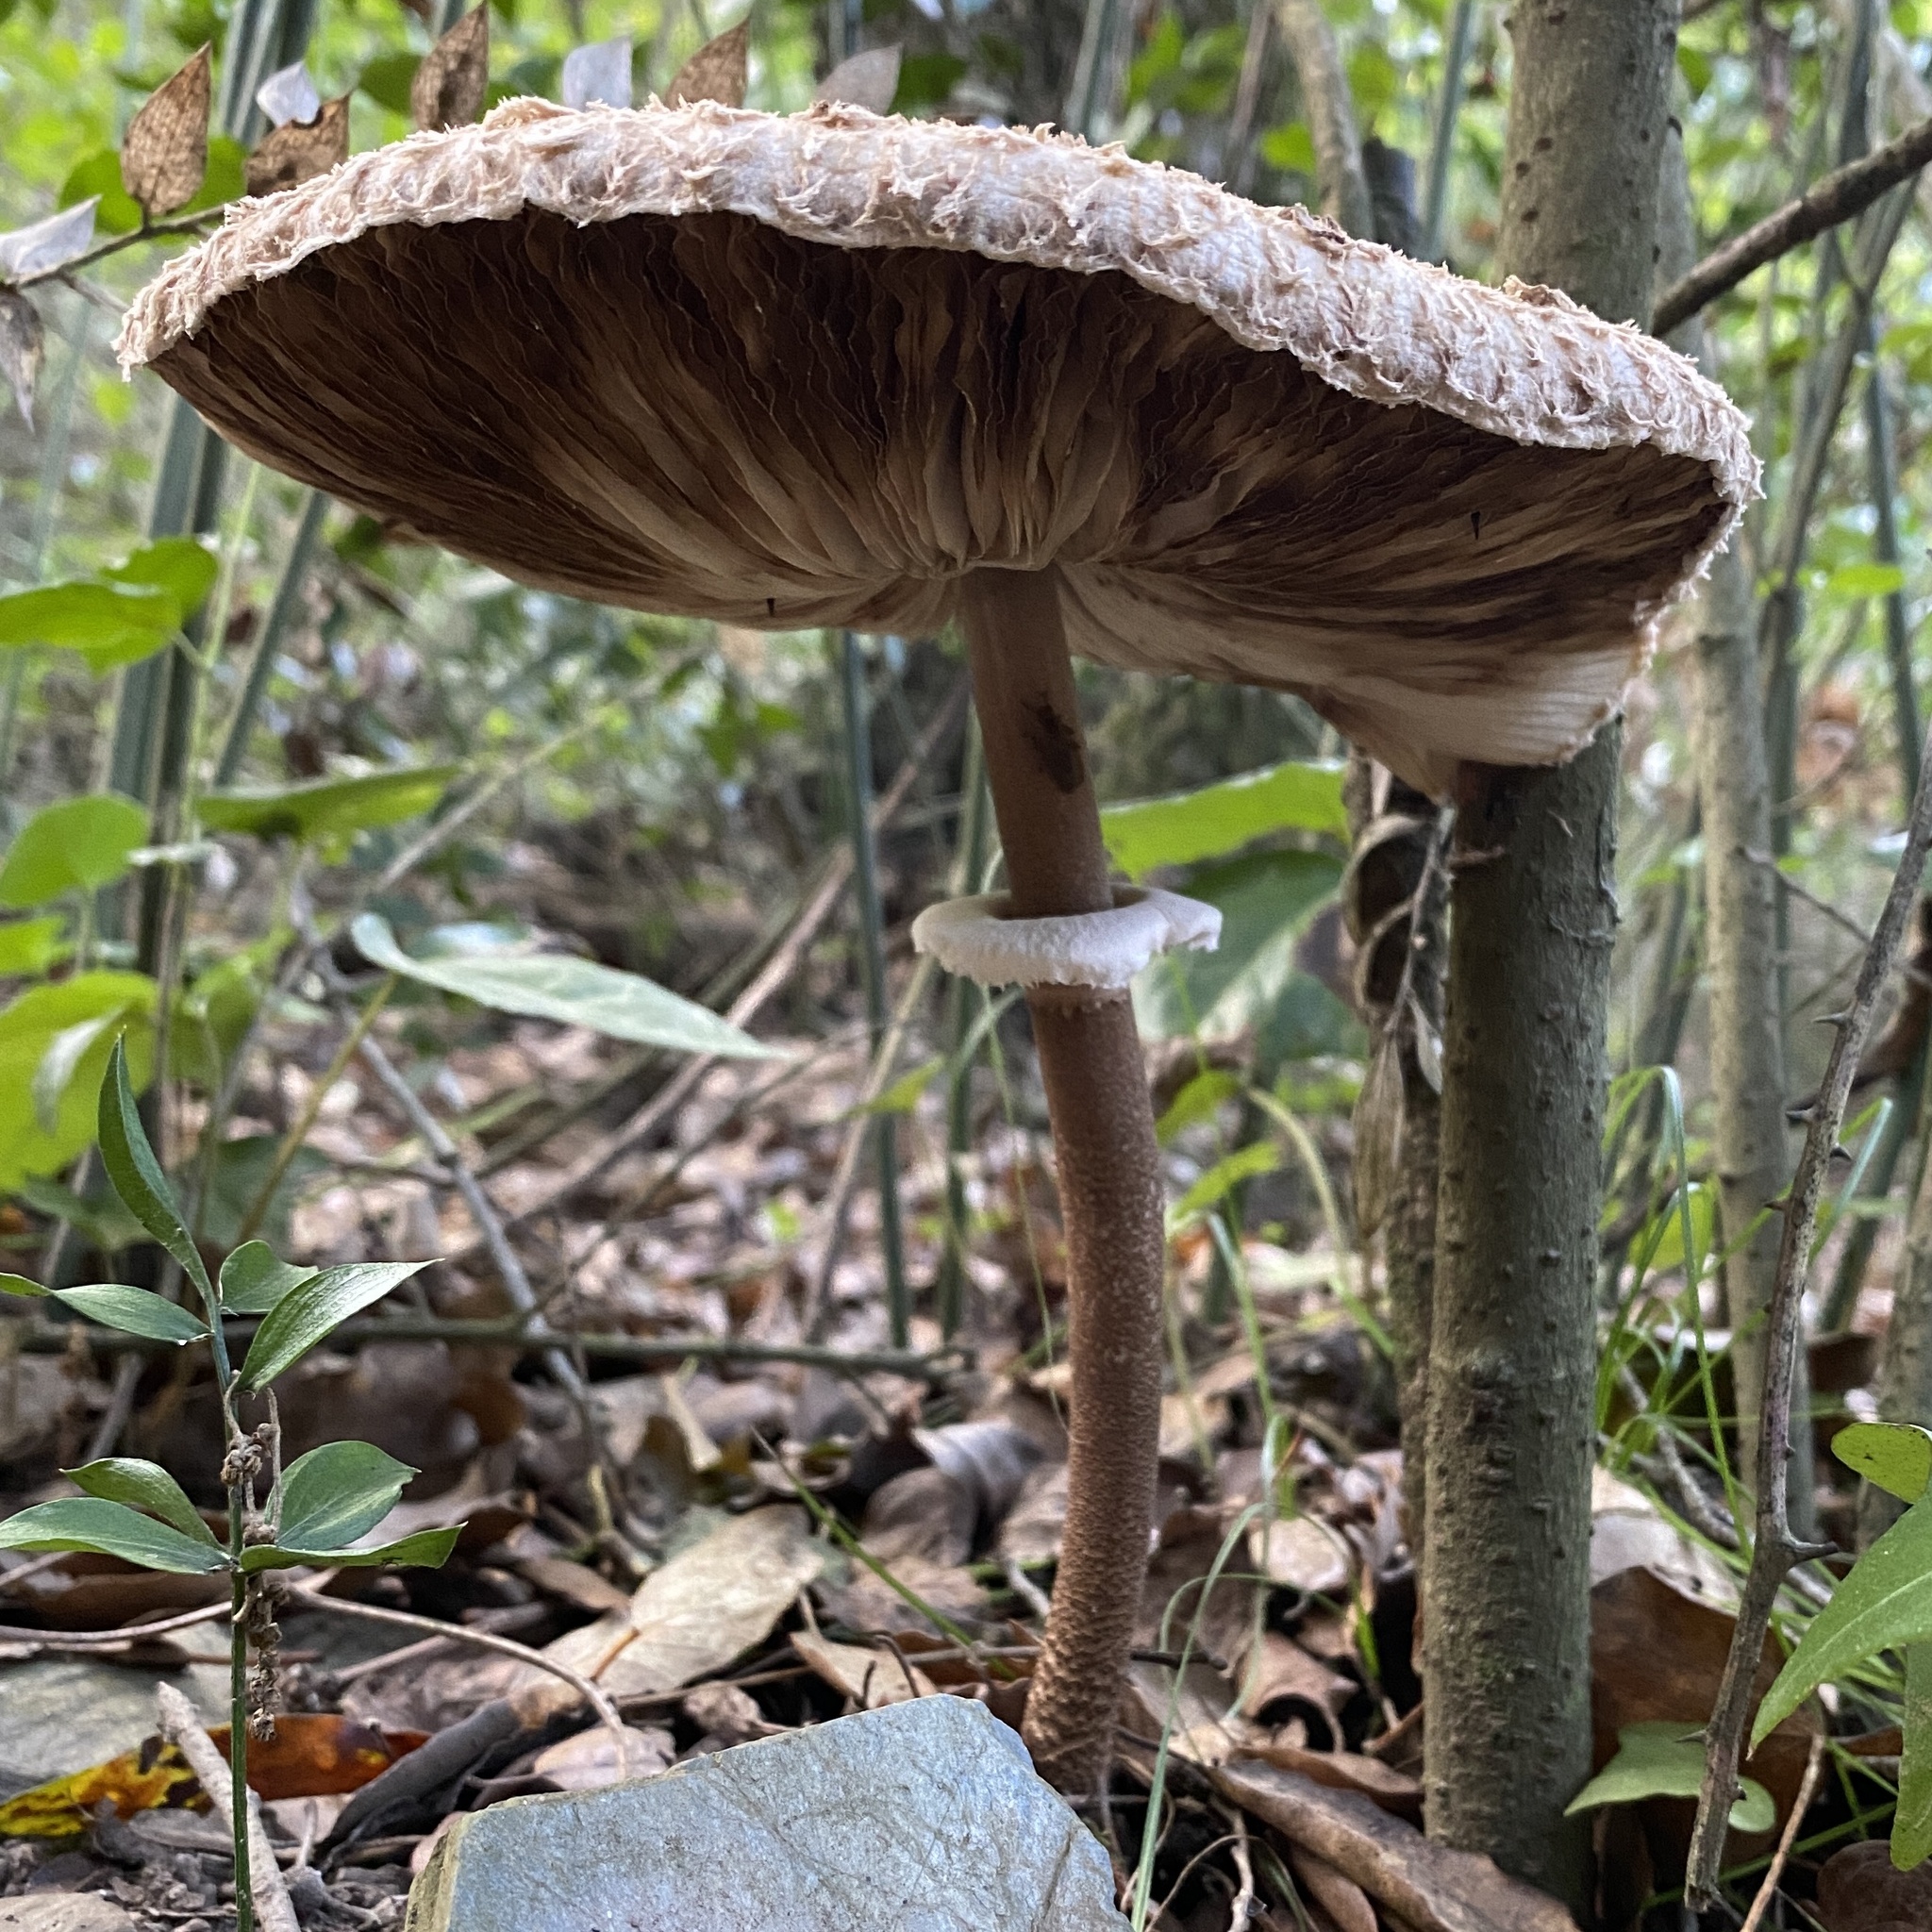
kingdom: Fungi
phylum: Basidiomycota
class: Agaricomycetes
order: Agaricales
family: Agaricaceae
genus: Macrolepiota
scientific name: Macrolepiota procera
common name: Parasol
